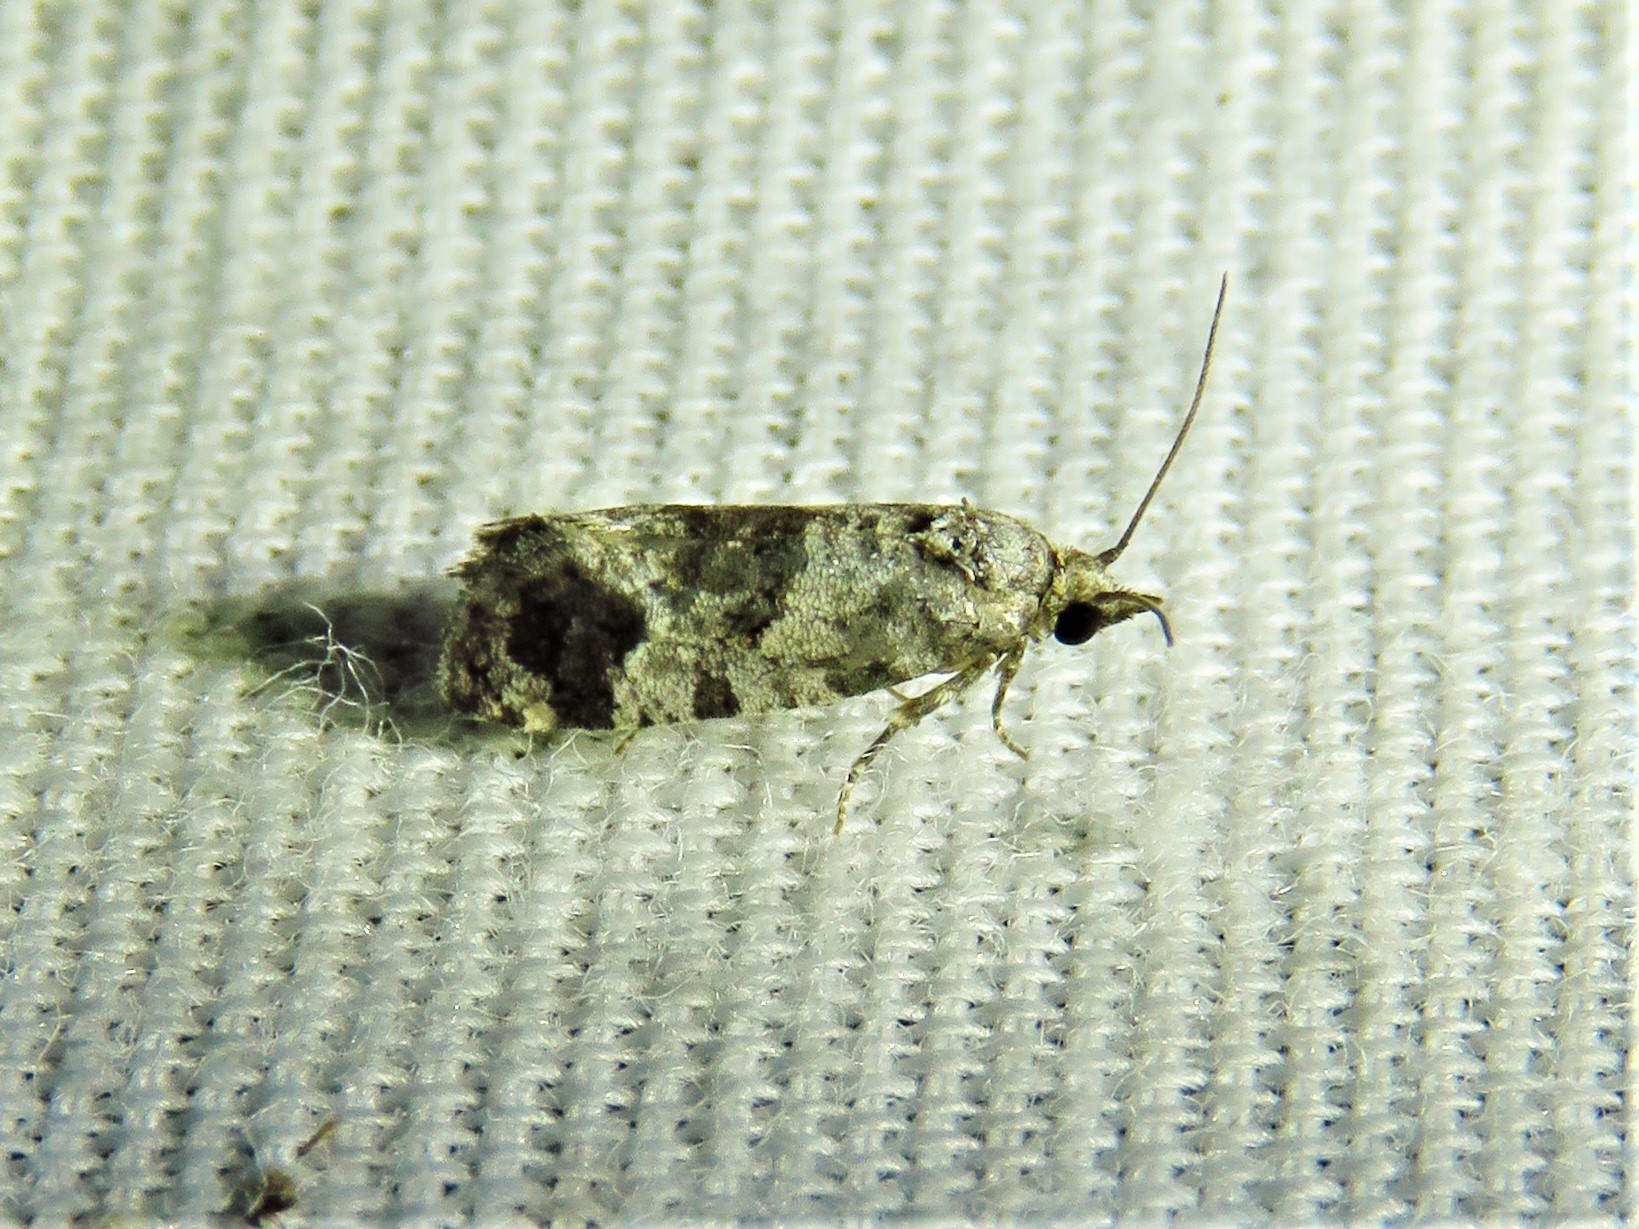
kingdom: Animalia
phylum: Arthropoda
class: Insecta
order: Lepidoptera
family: Tortricidae
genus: Rudenia
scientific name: Rudenia leguminana
